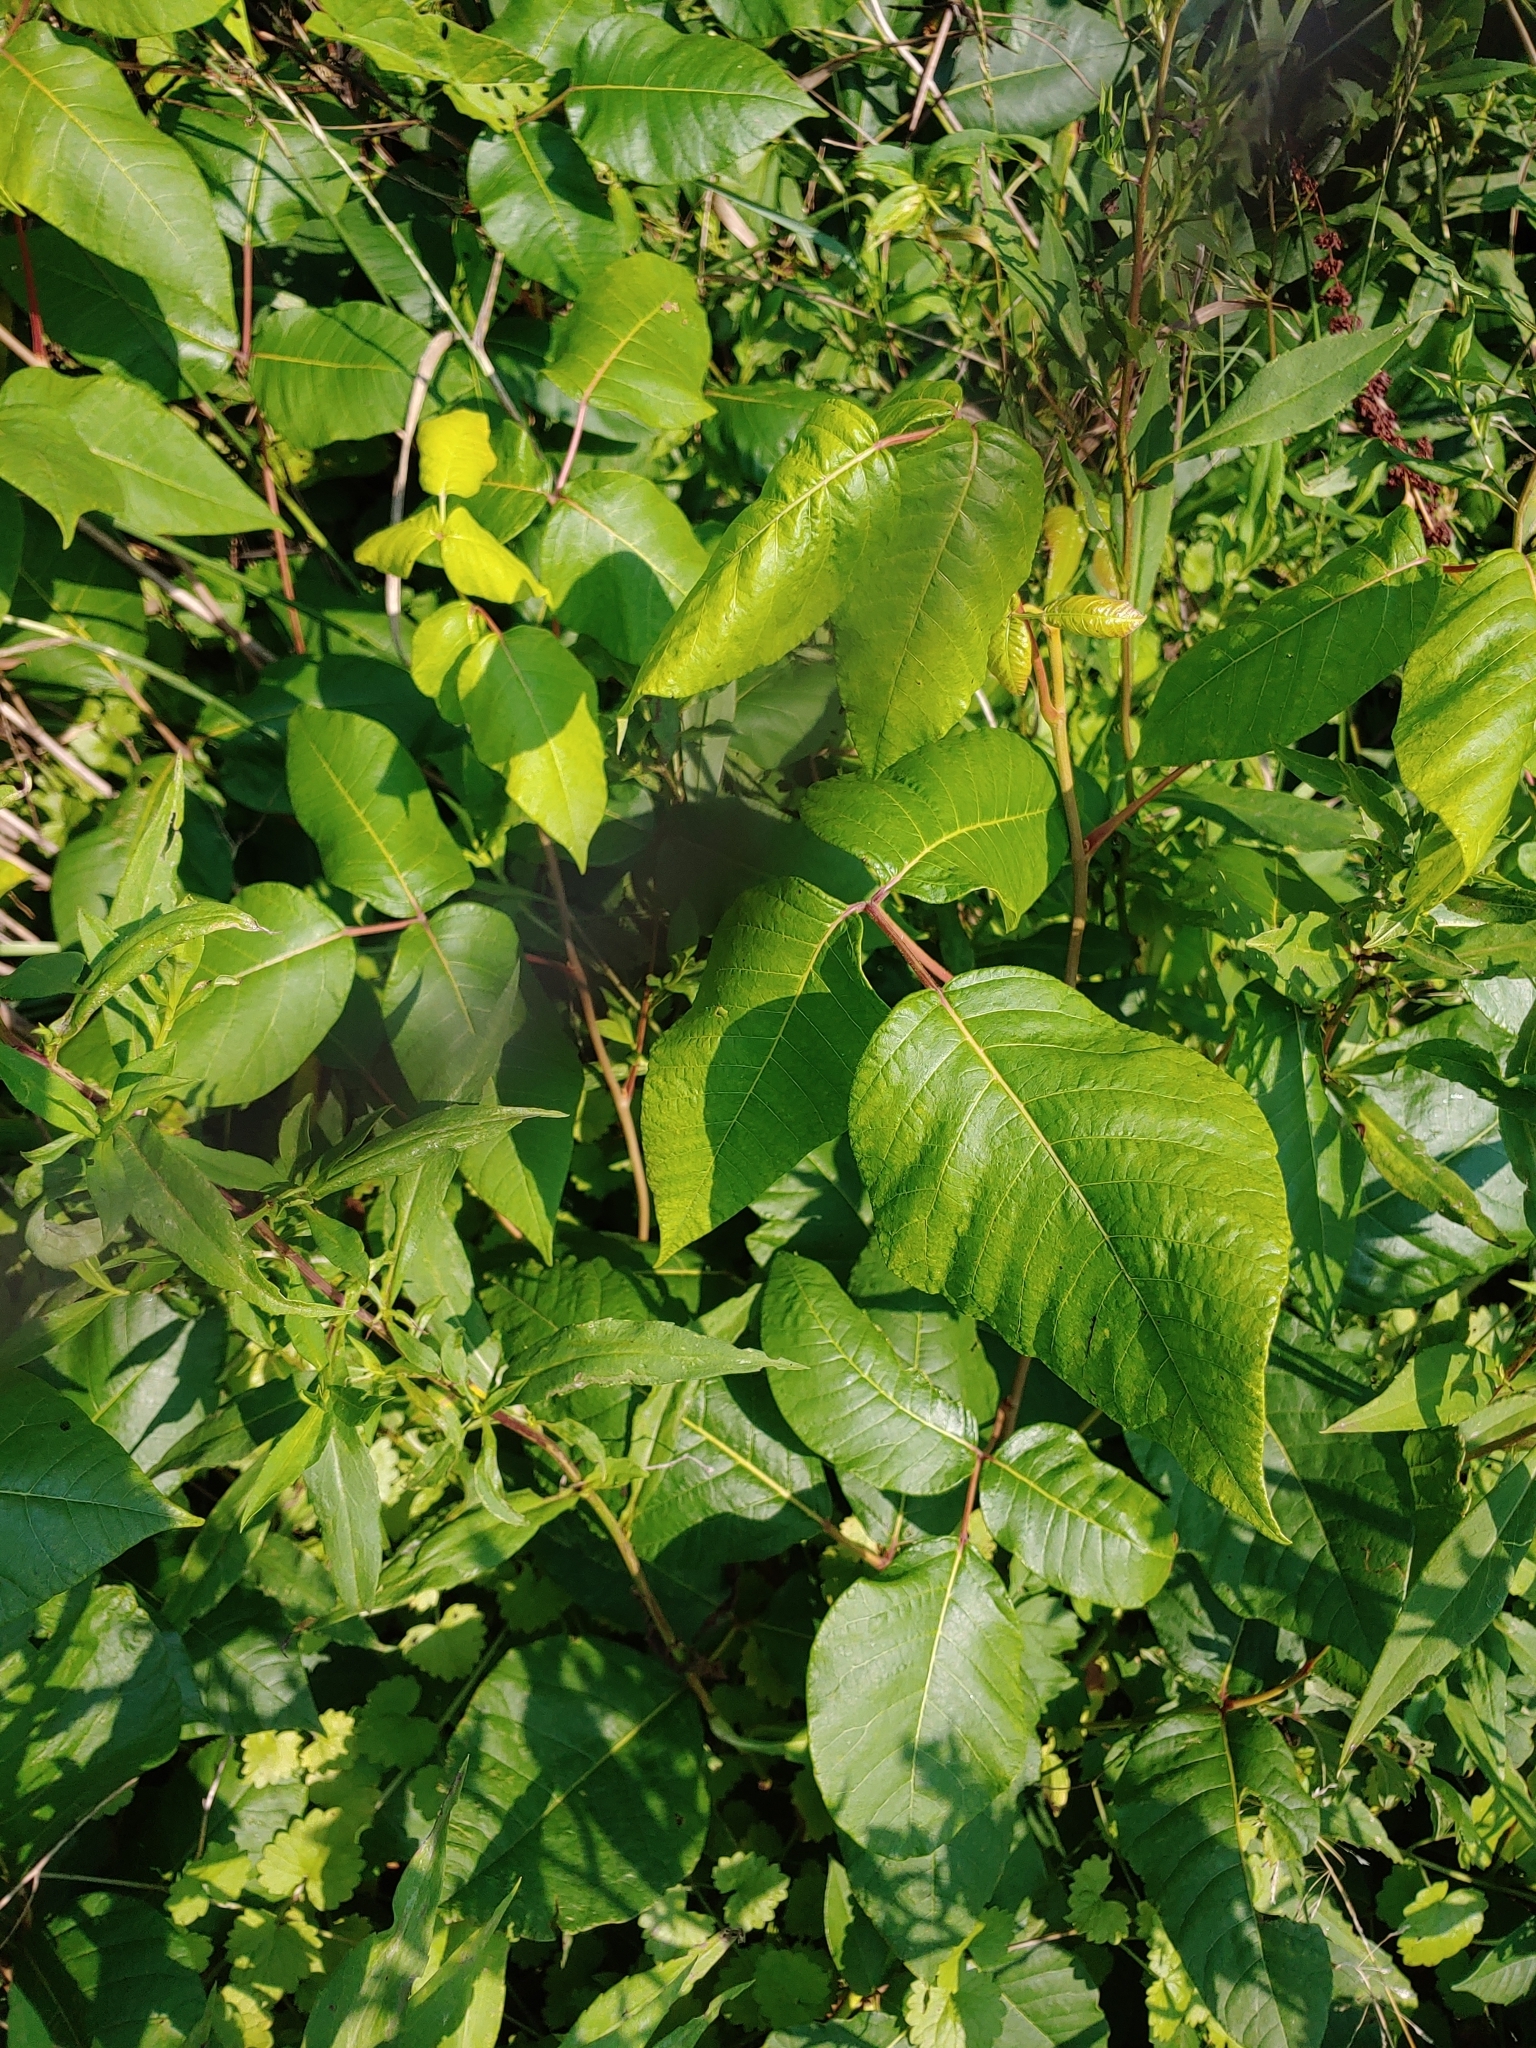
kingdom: Plantae
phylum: Tracheophyta
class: Magnoliopsida
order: Sapindales
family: Anacardiaceae
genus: Toxicodendron
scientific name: Toxicodendron radicans
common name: Poison ivy
